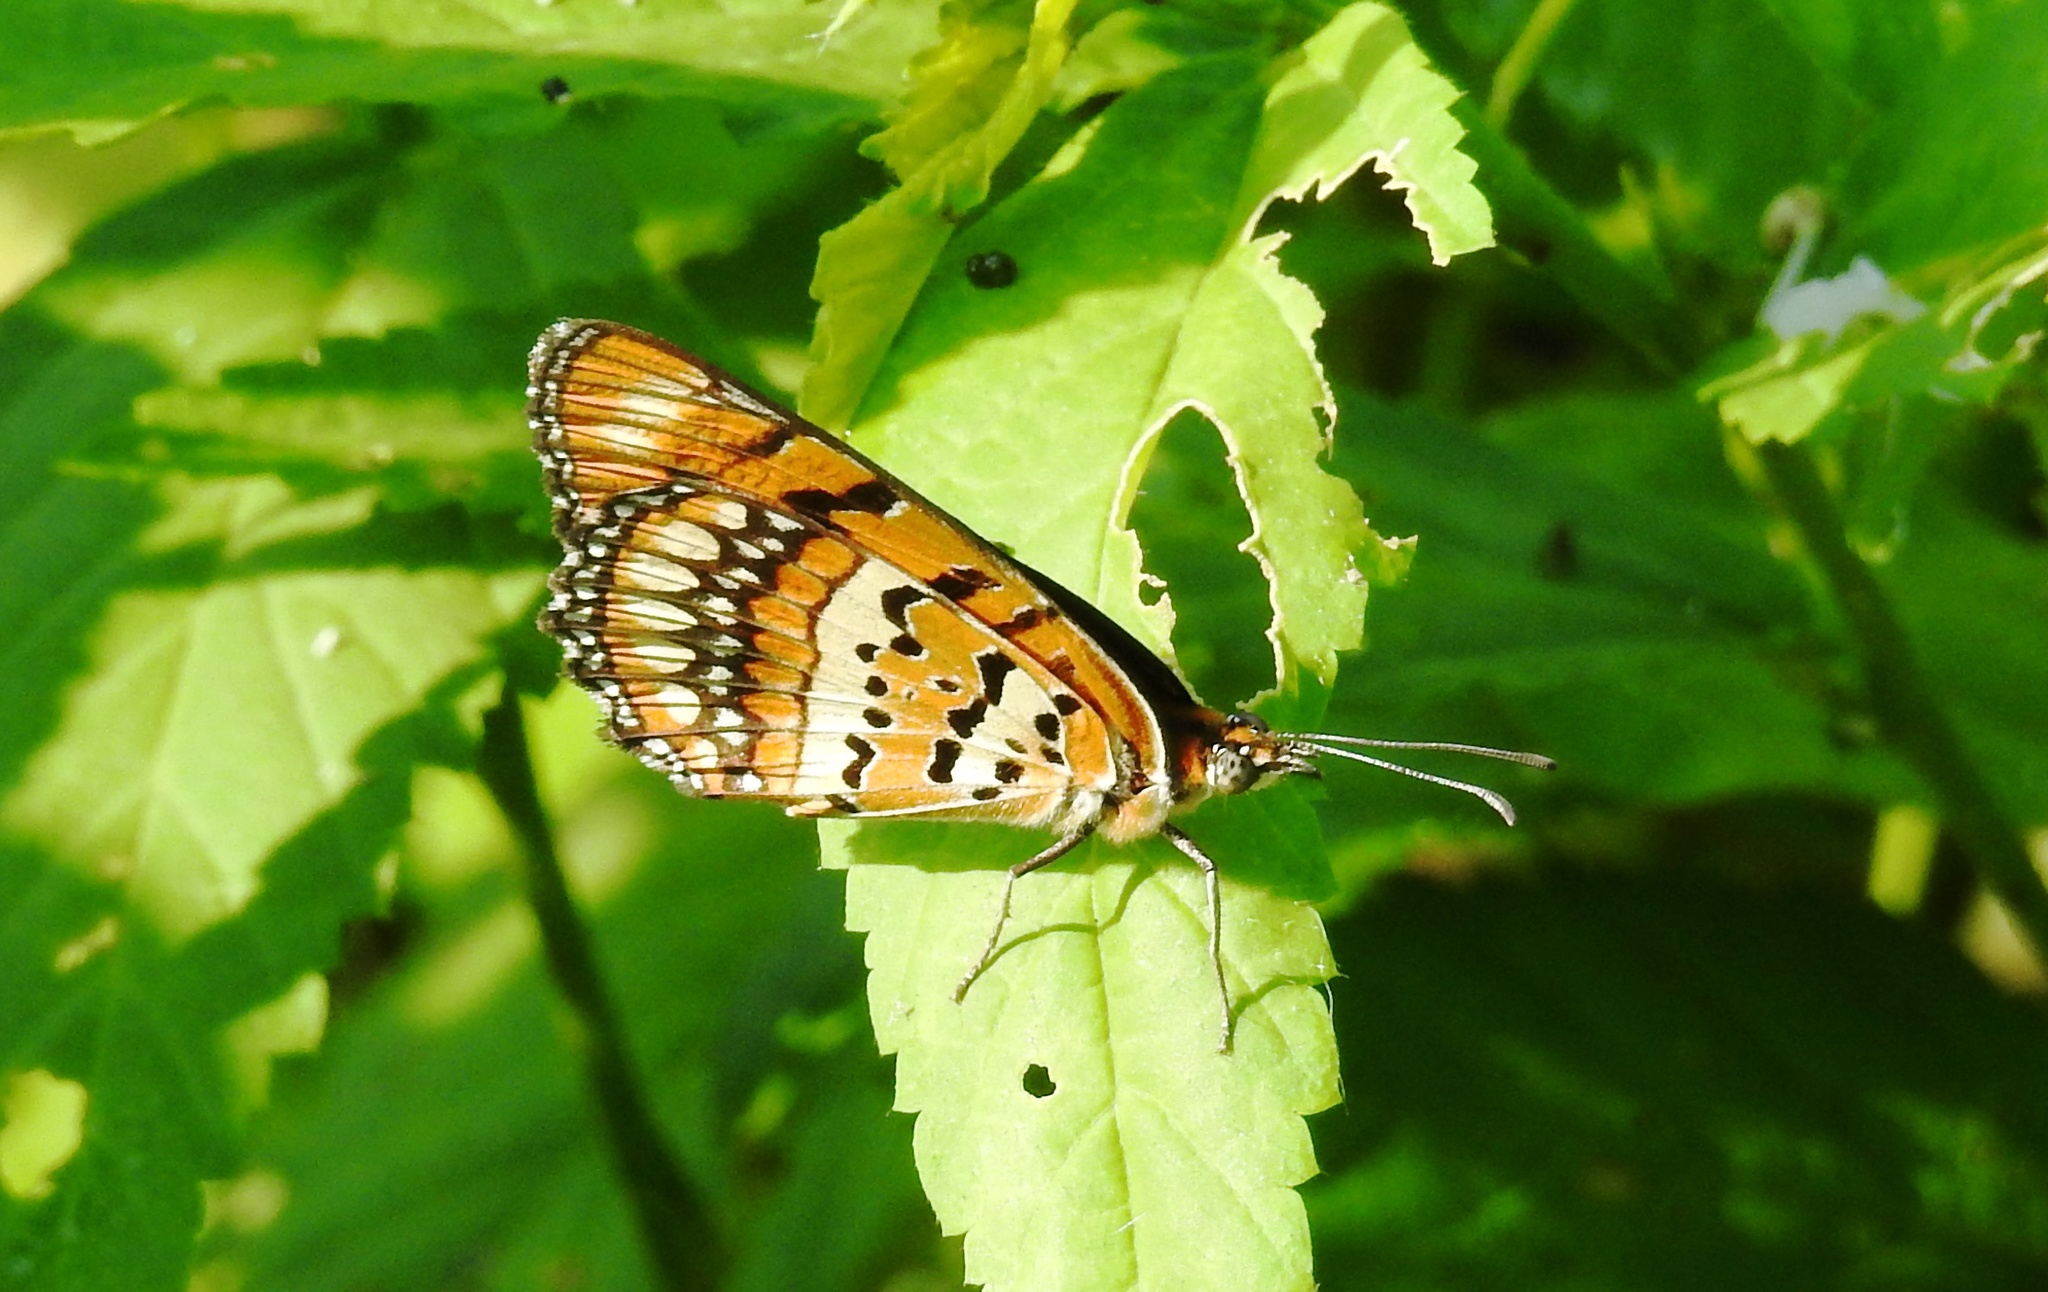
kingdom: Animalia
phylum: Arthropoda
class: Insecta
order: Lepidoptera
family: Nymphalidae
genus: Byblia
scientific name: Byblia ilithyia
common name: Spotted joker
